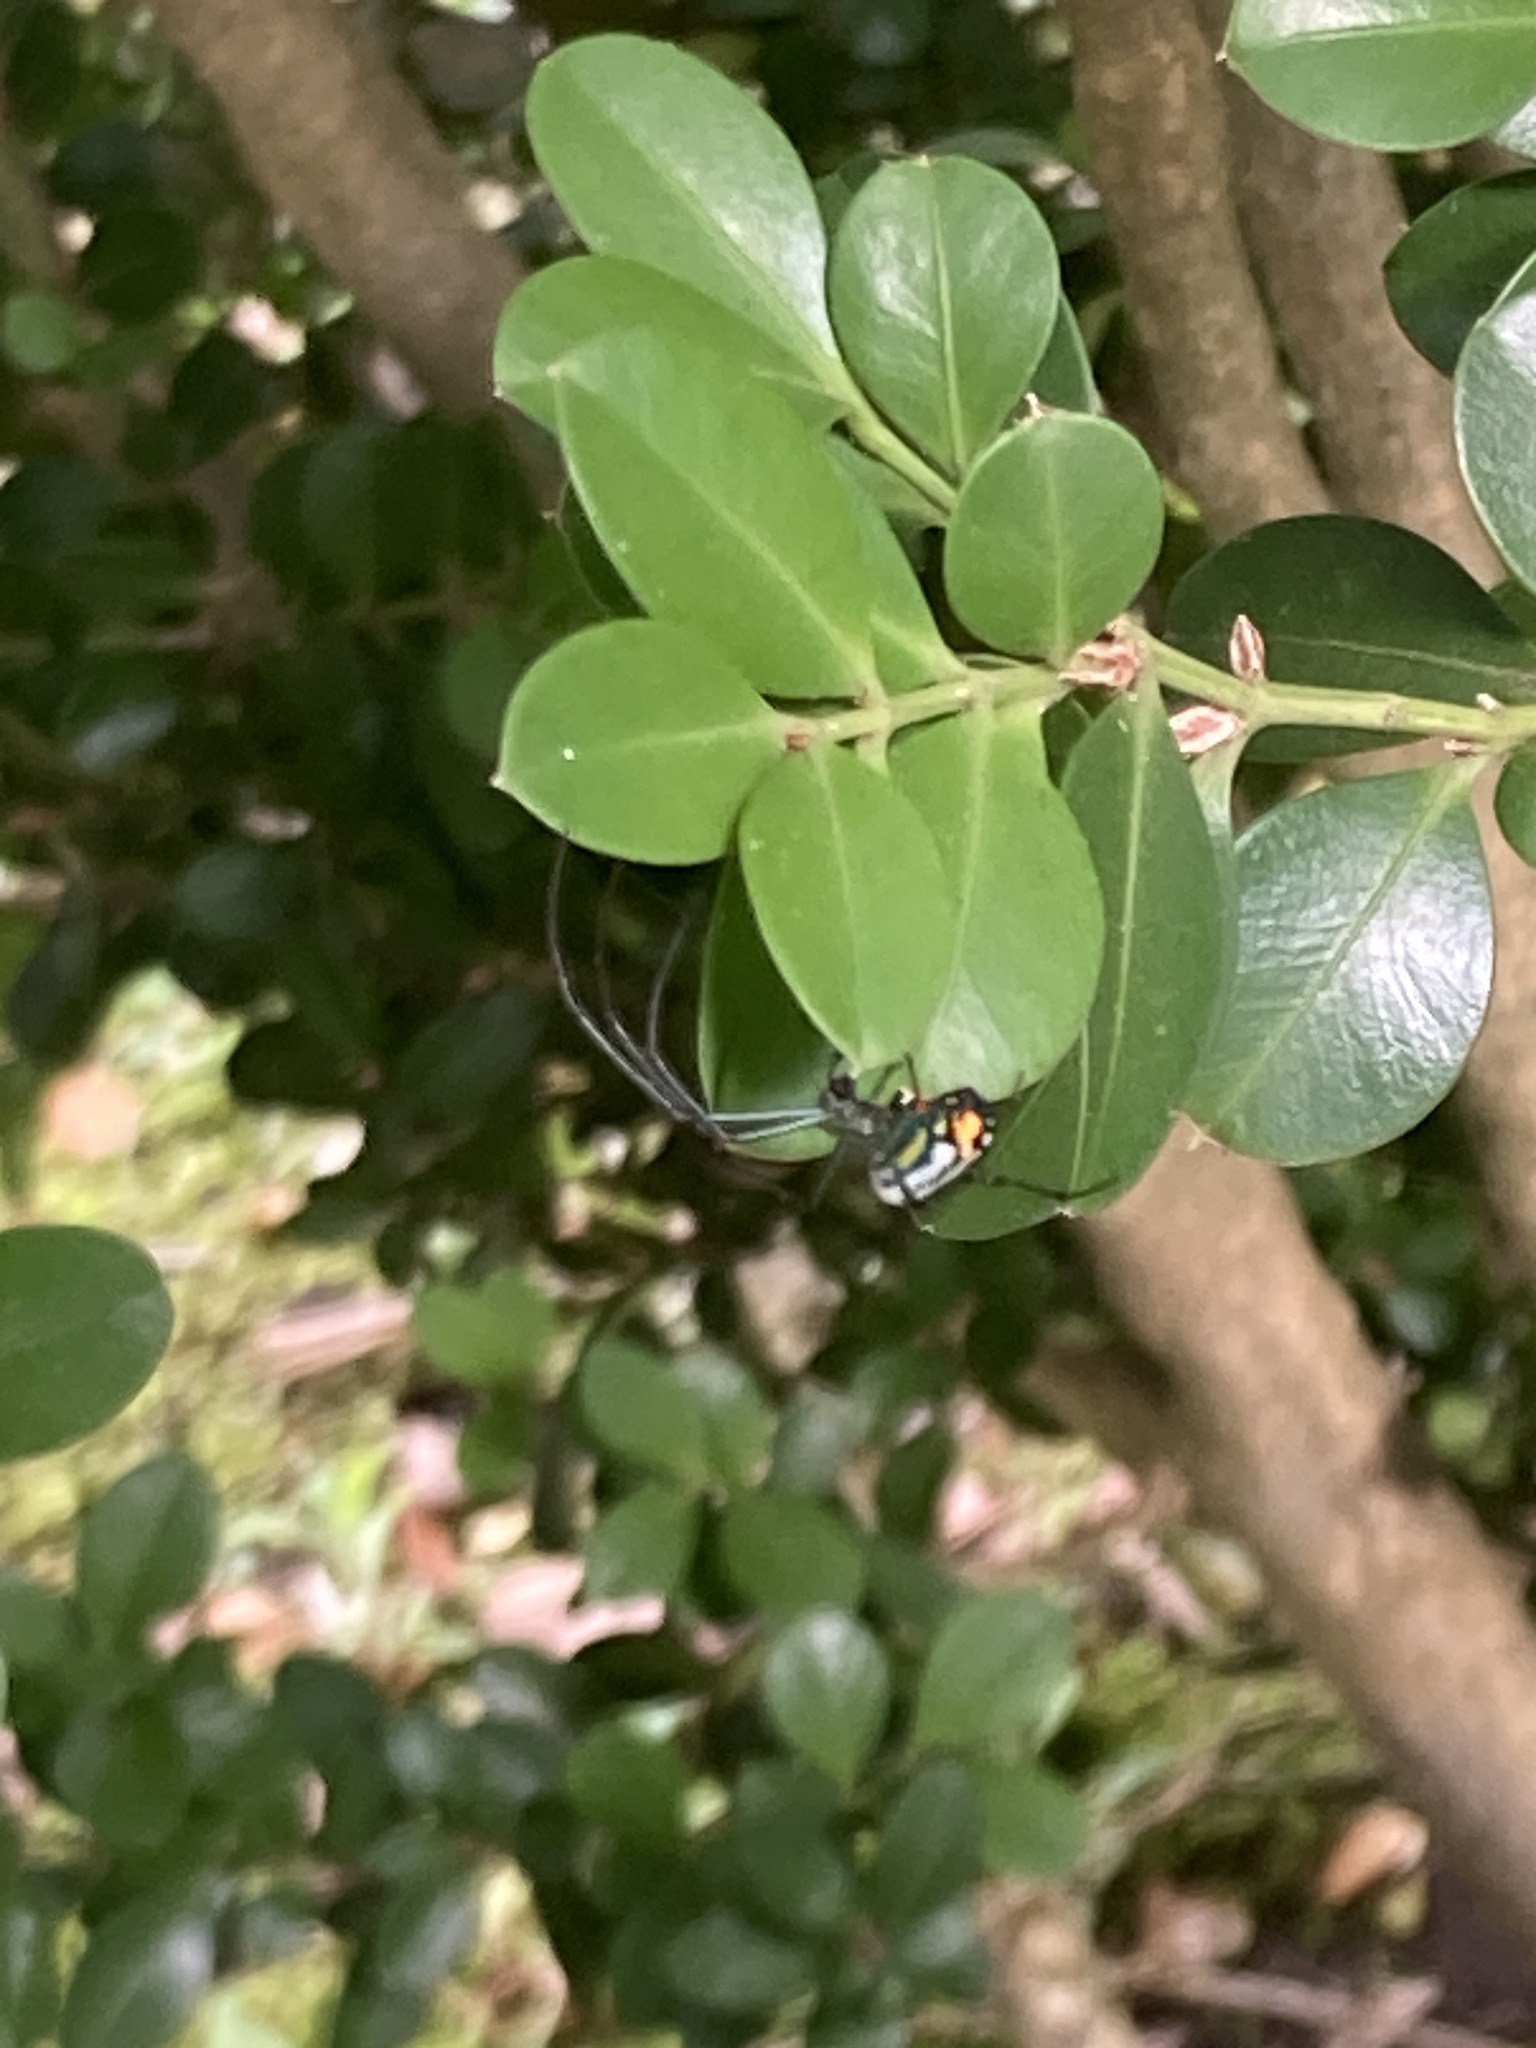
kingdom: Animalia
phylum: Arthropoda
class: Arachnida
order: Araneae
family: Tetragnathidae
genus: Leucauge
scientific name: Leucauge argyrobapta
